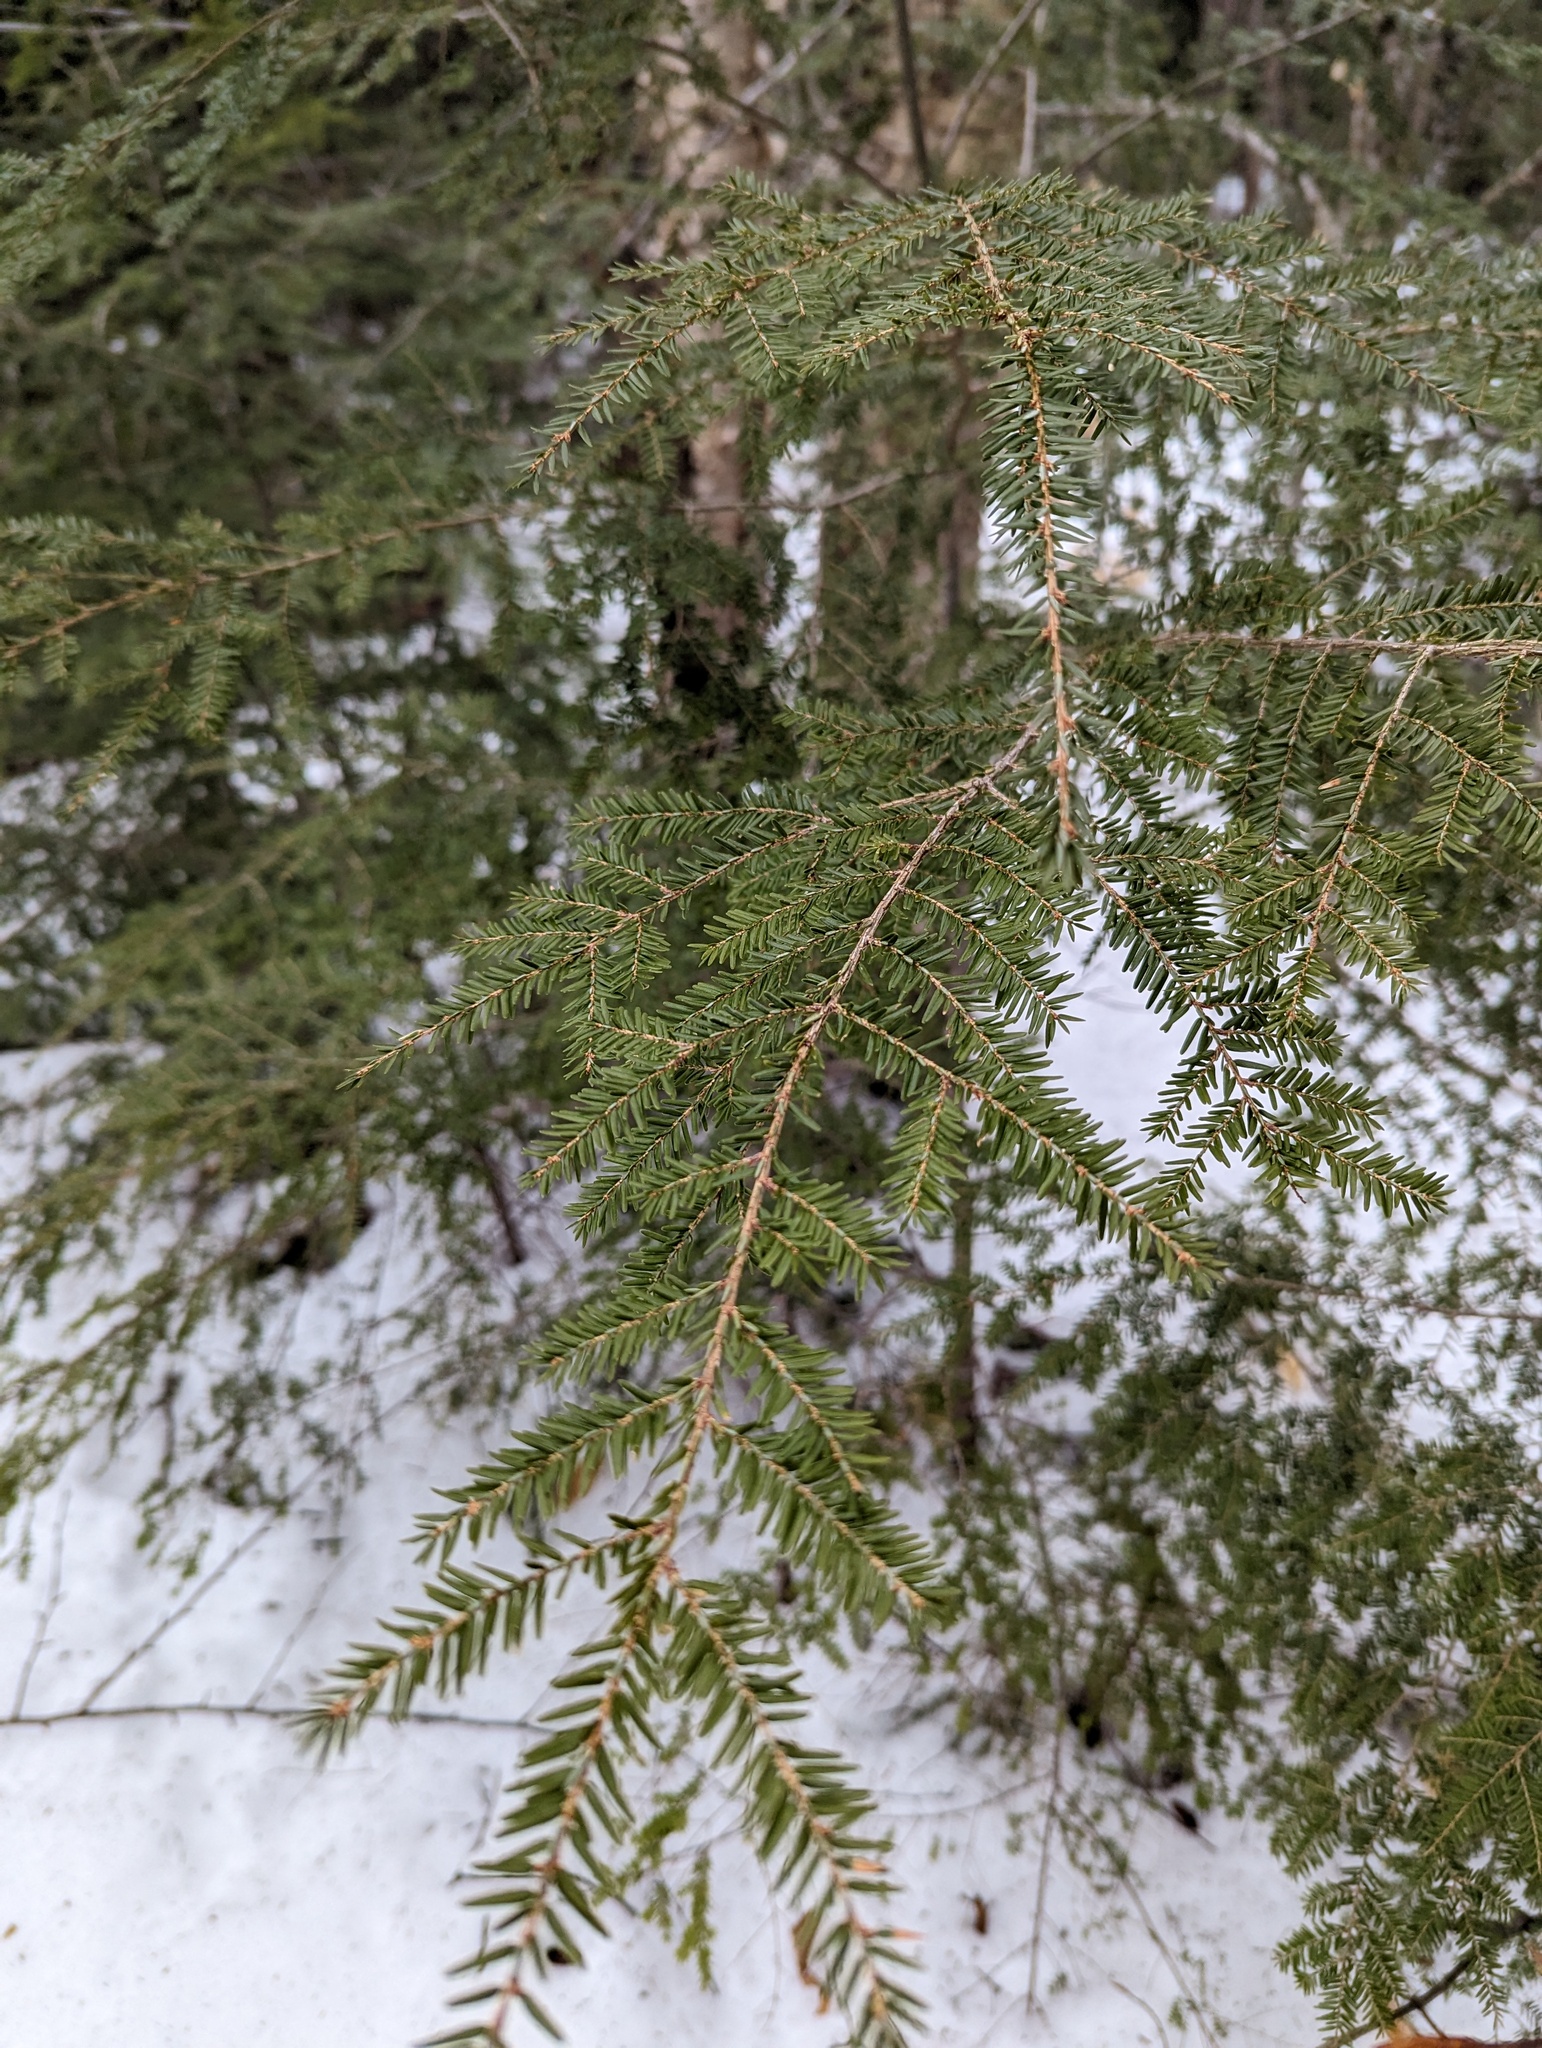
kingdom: Plantae
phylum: Tracheophyta
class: Pinopsida
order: Pinales
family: Pinaceae
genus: Tsuga
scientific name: Tsuga canadensis
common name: Eastern hemlock
